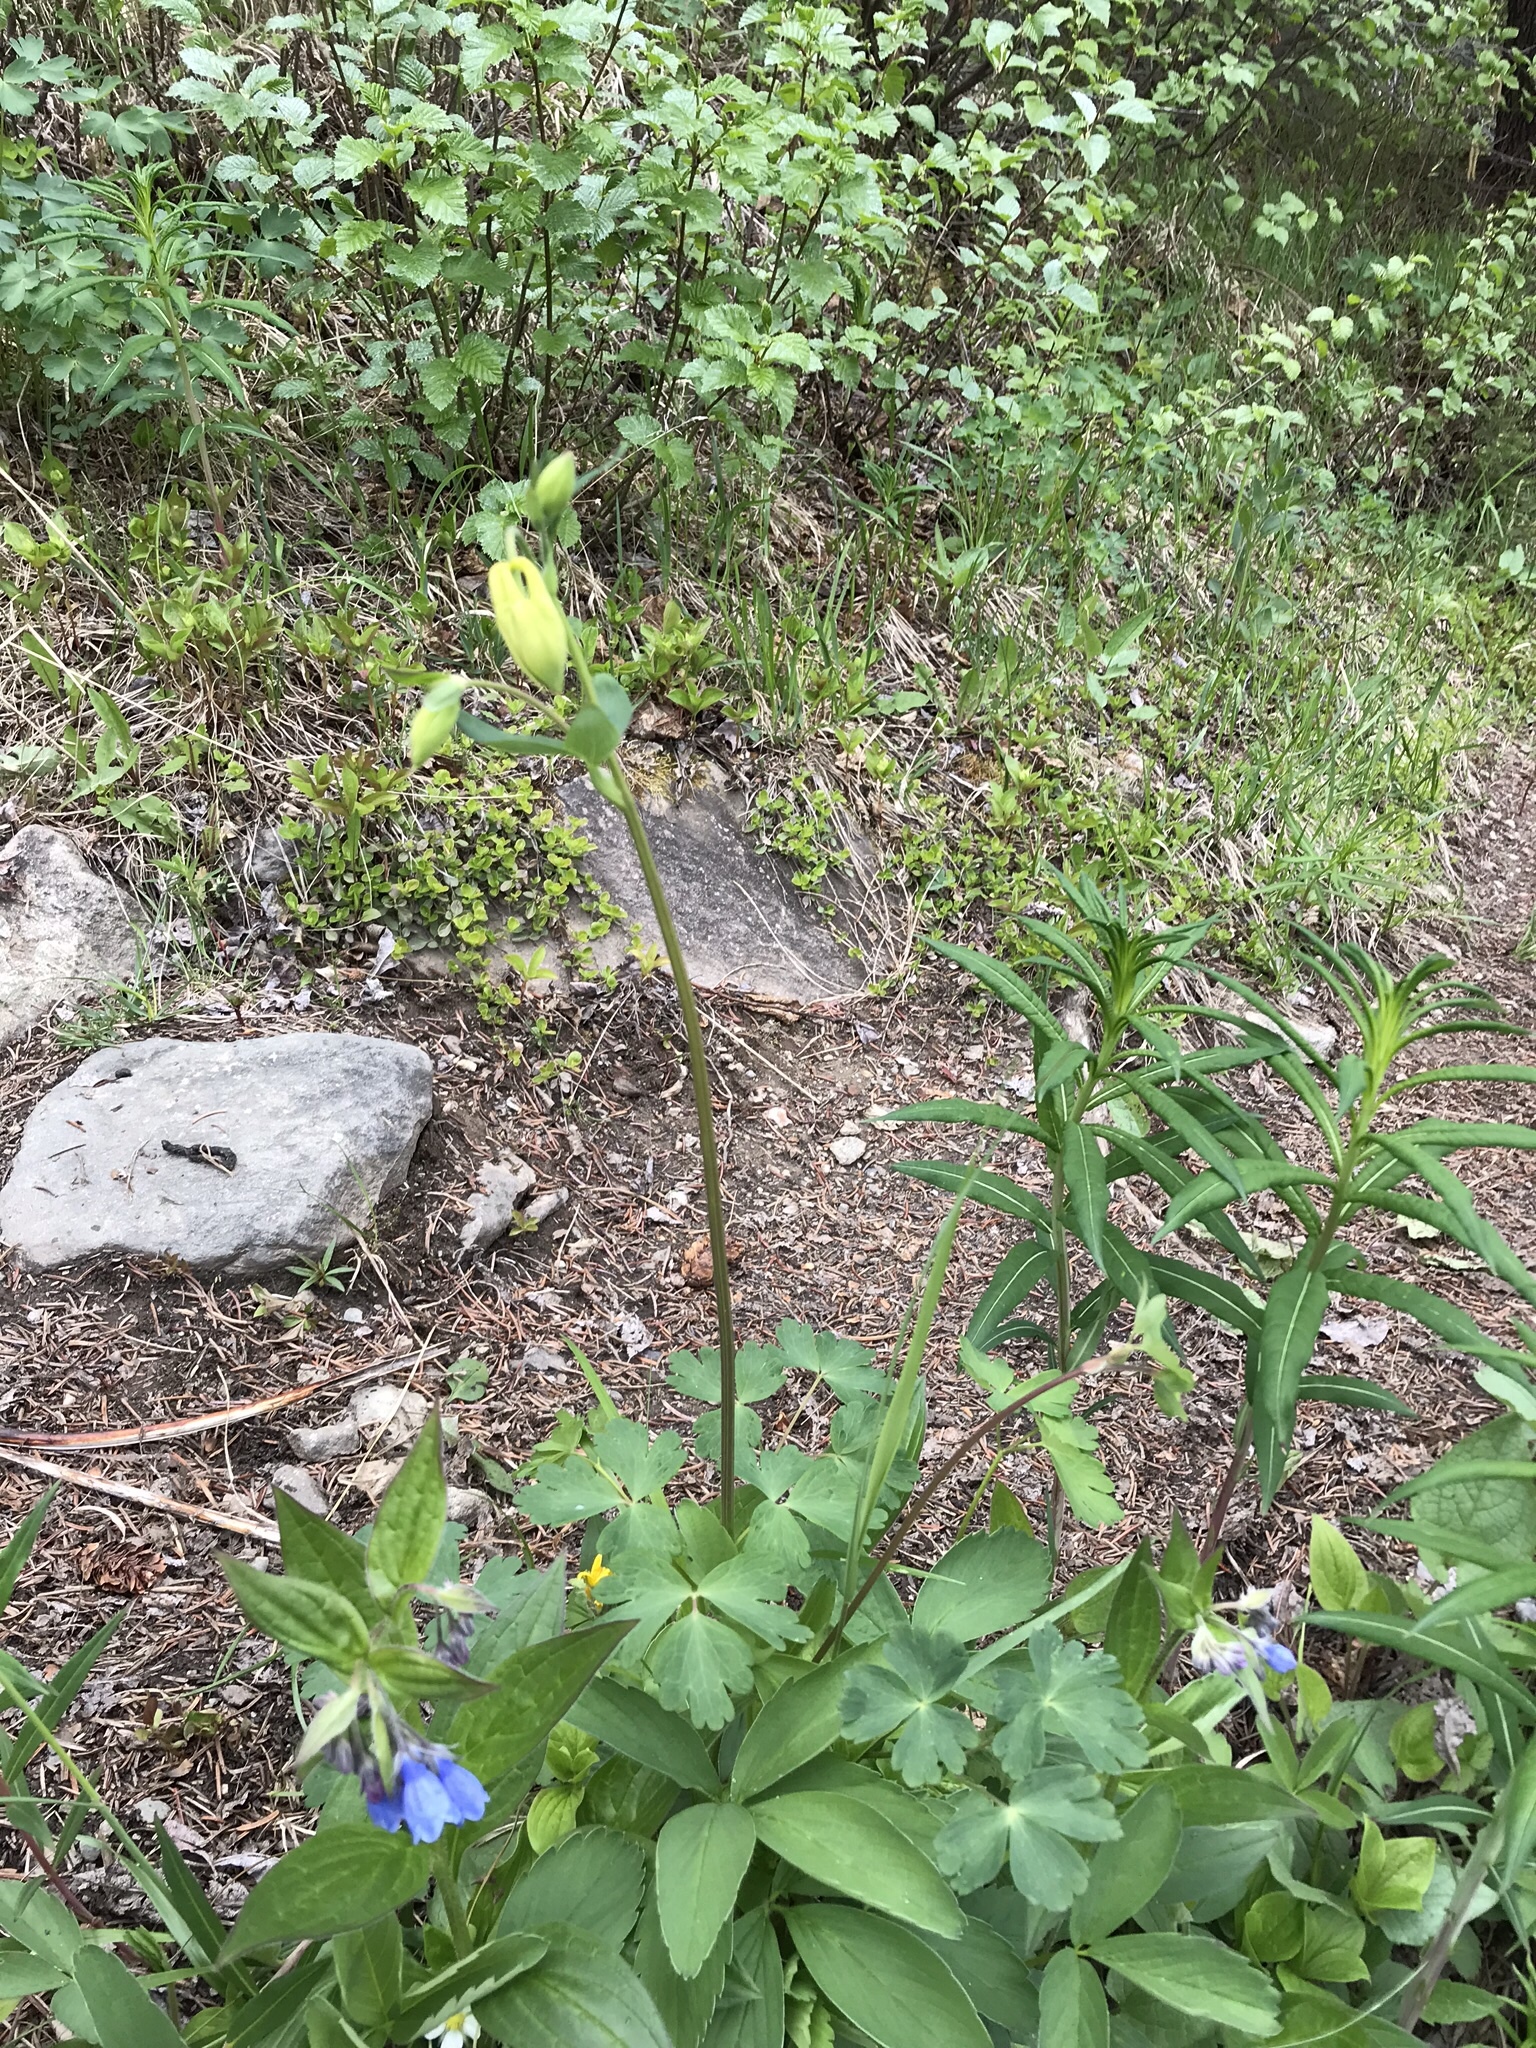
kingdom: Plantae
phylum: Tracheophyta
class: Magnoliopsida
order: Ranunculales
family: Ranunculaceae
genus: Aquilegia
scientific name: Aquilegia flavescens
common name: Yellow columbine
